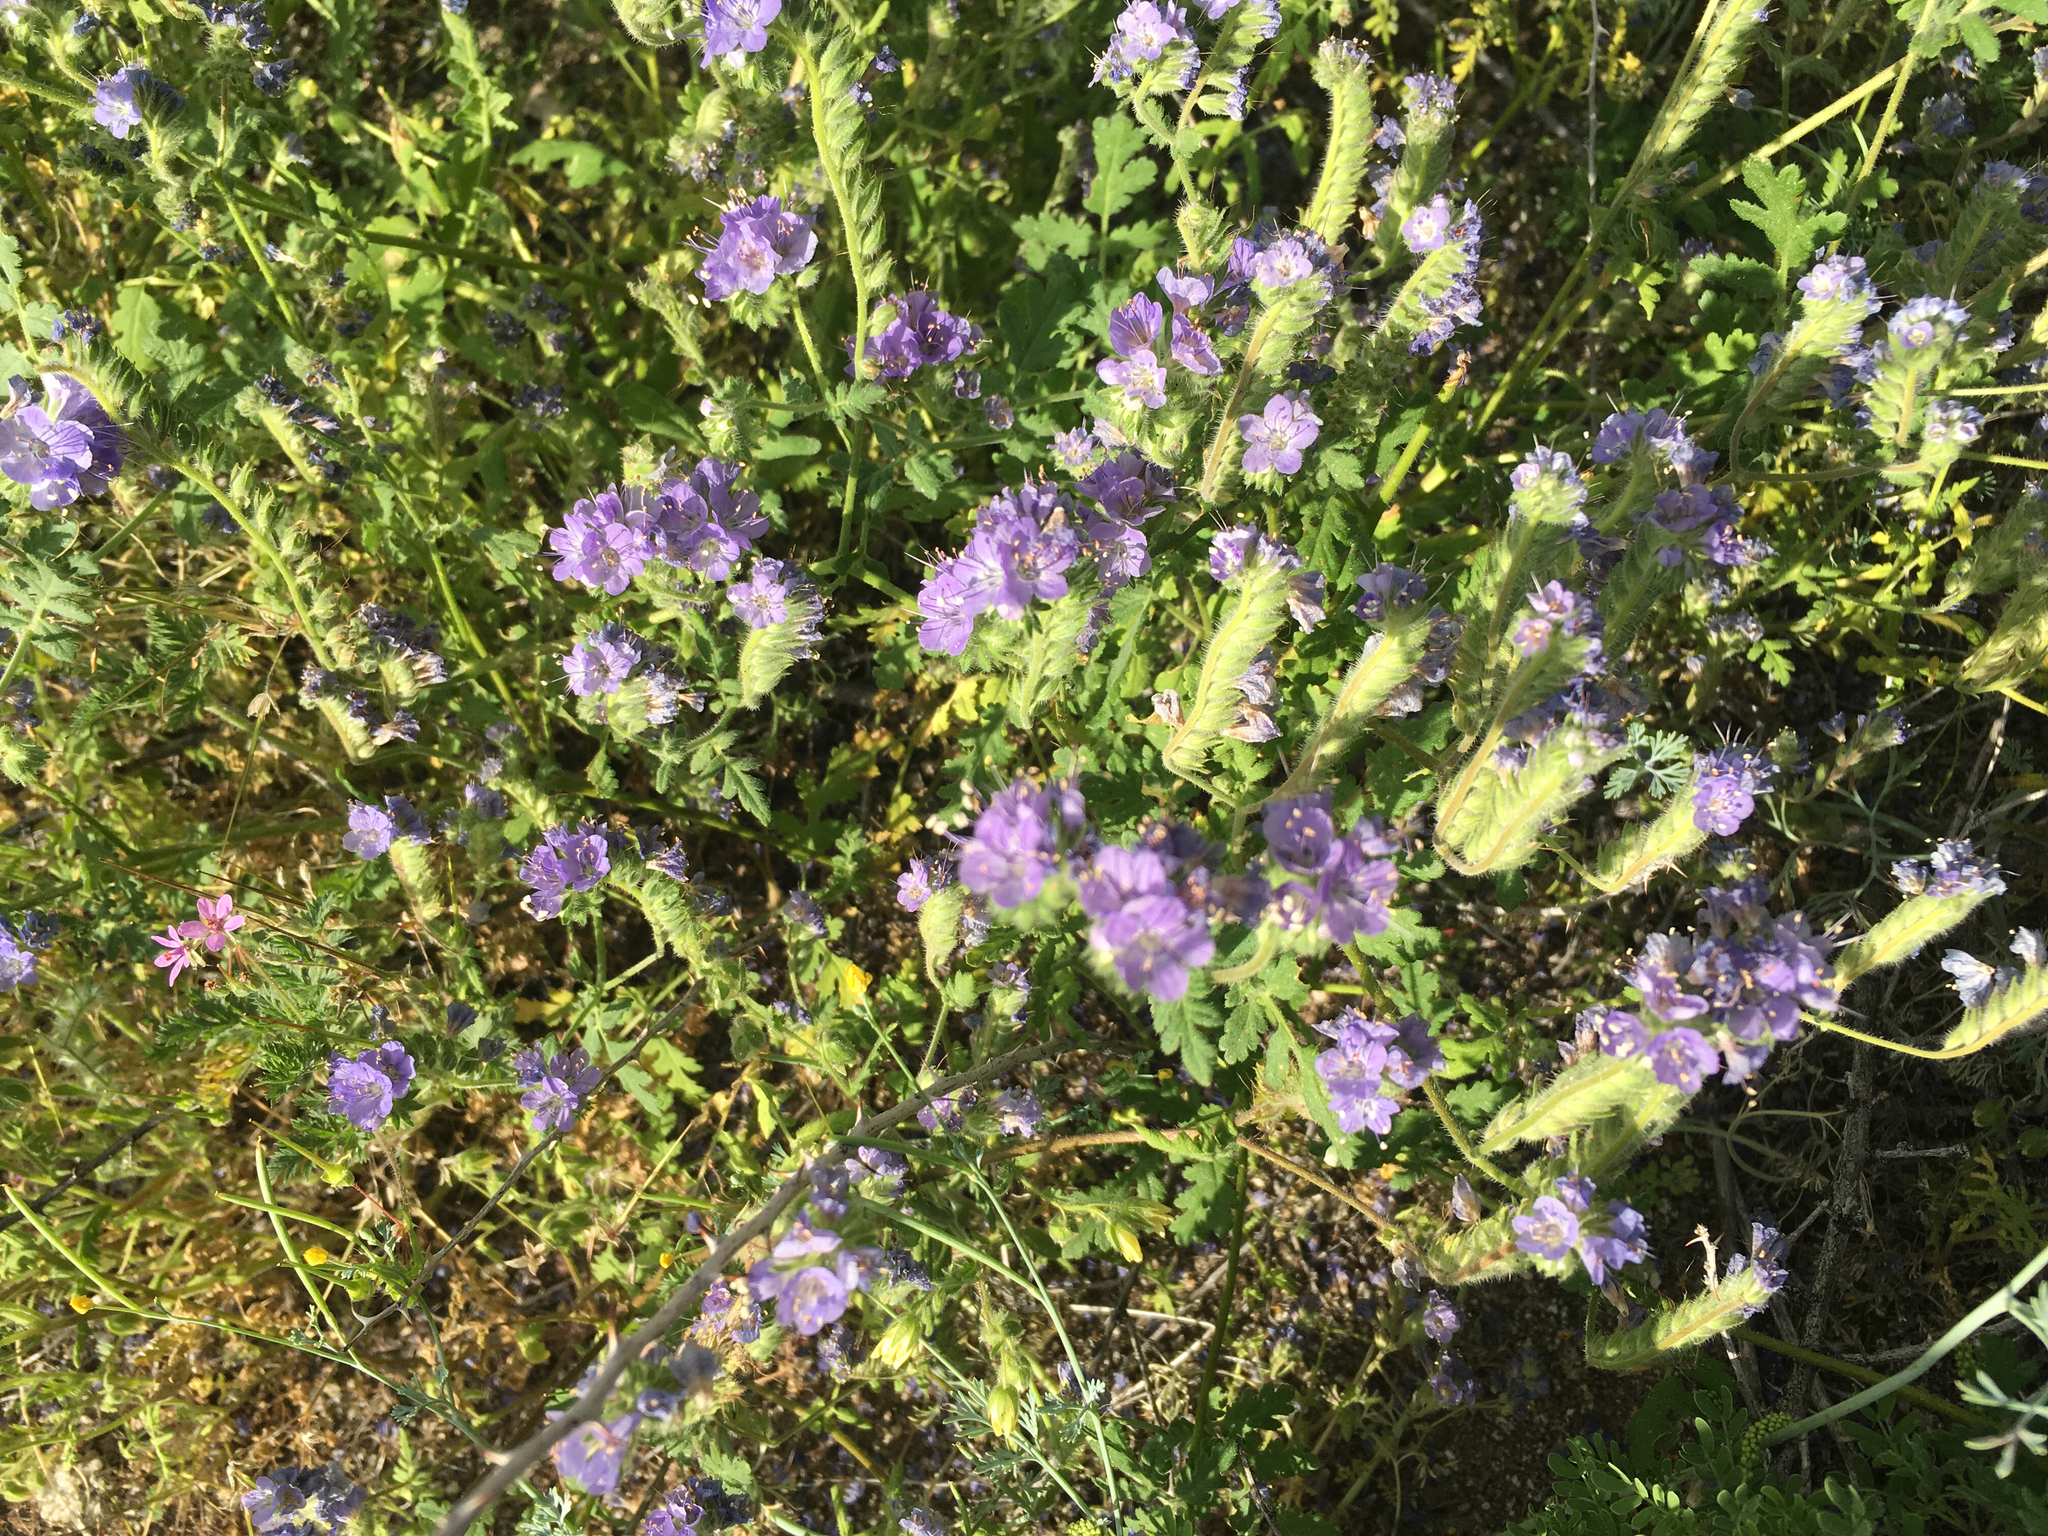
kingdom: Plantae
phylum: Tracheophyta
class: Magnoliopsida
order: Boraginales
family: Hydrophyllaceae
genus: Phacelia
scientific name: Phacelia distans
